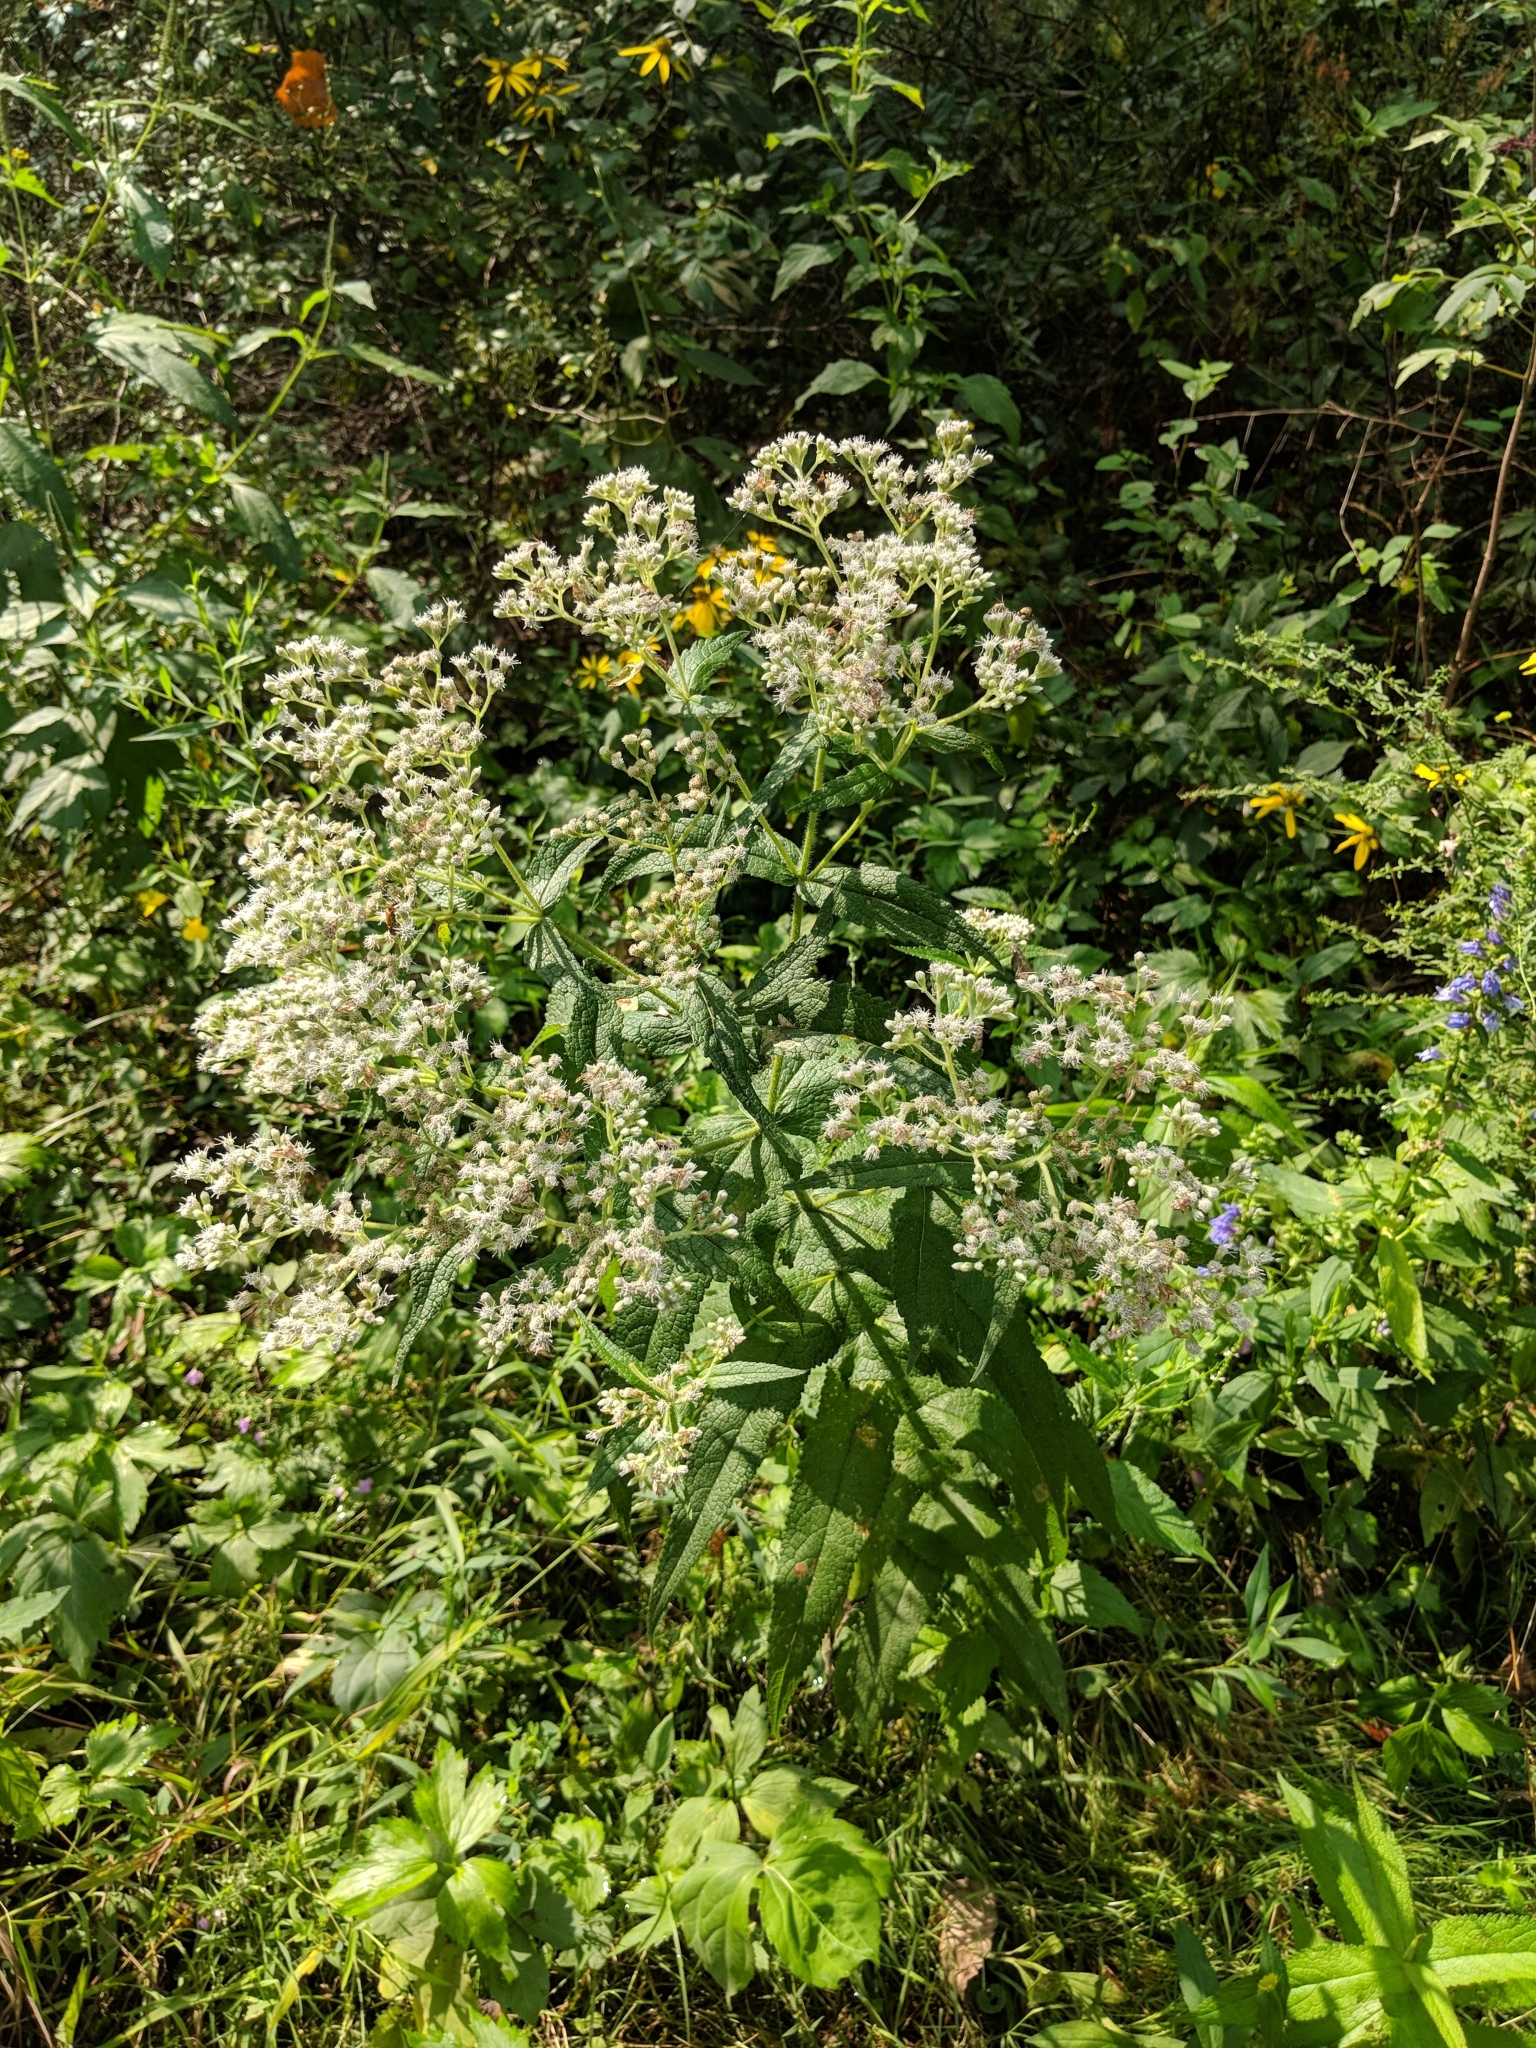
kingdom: Plantae
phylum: Tracheophyta
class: Magnoliopsida
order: Asterales
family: Asteraceae
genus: Eupatorium
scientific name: Eupatorium perfoliatum
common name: Boneset
